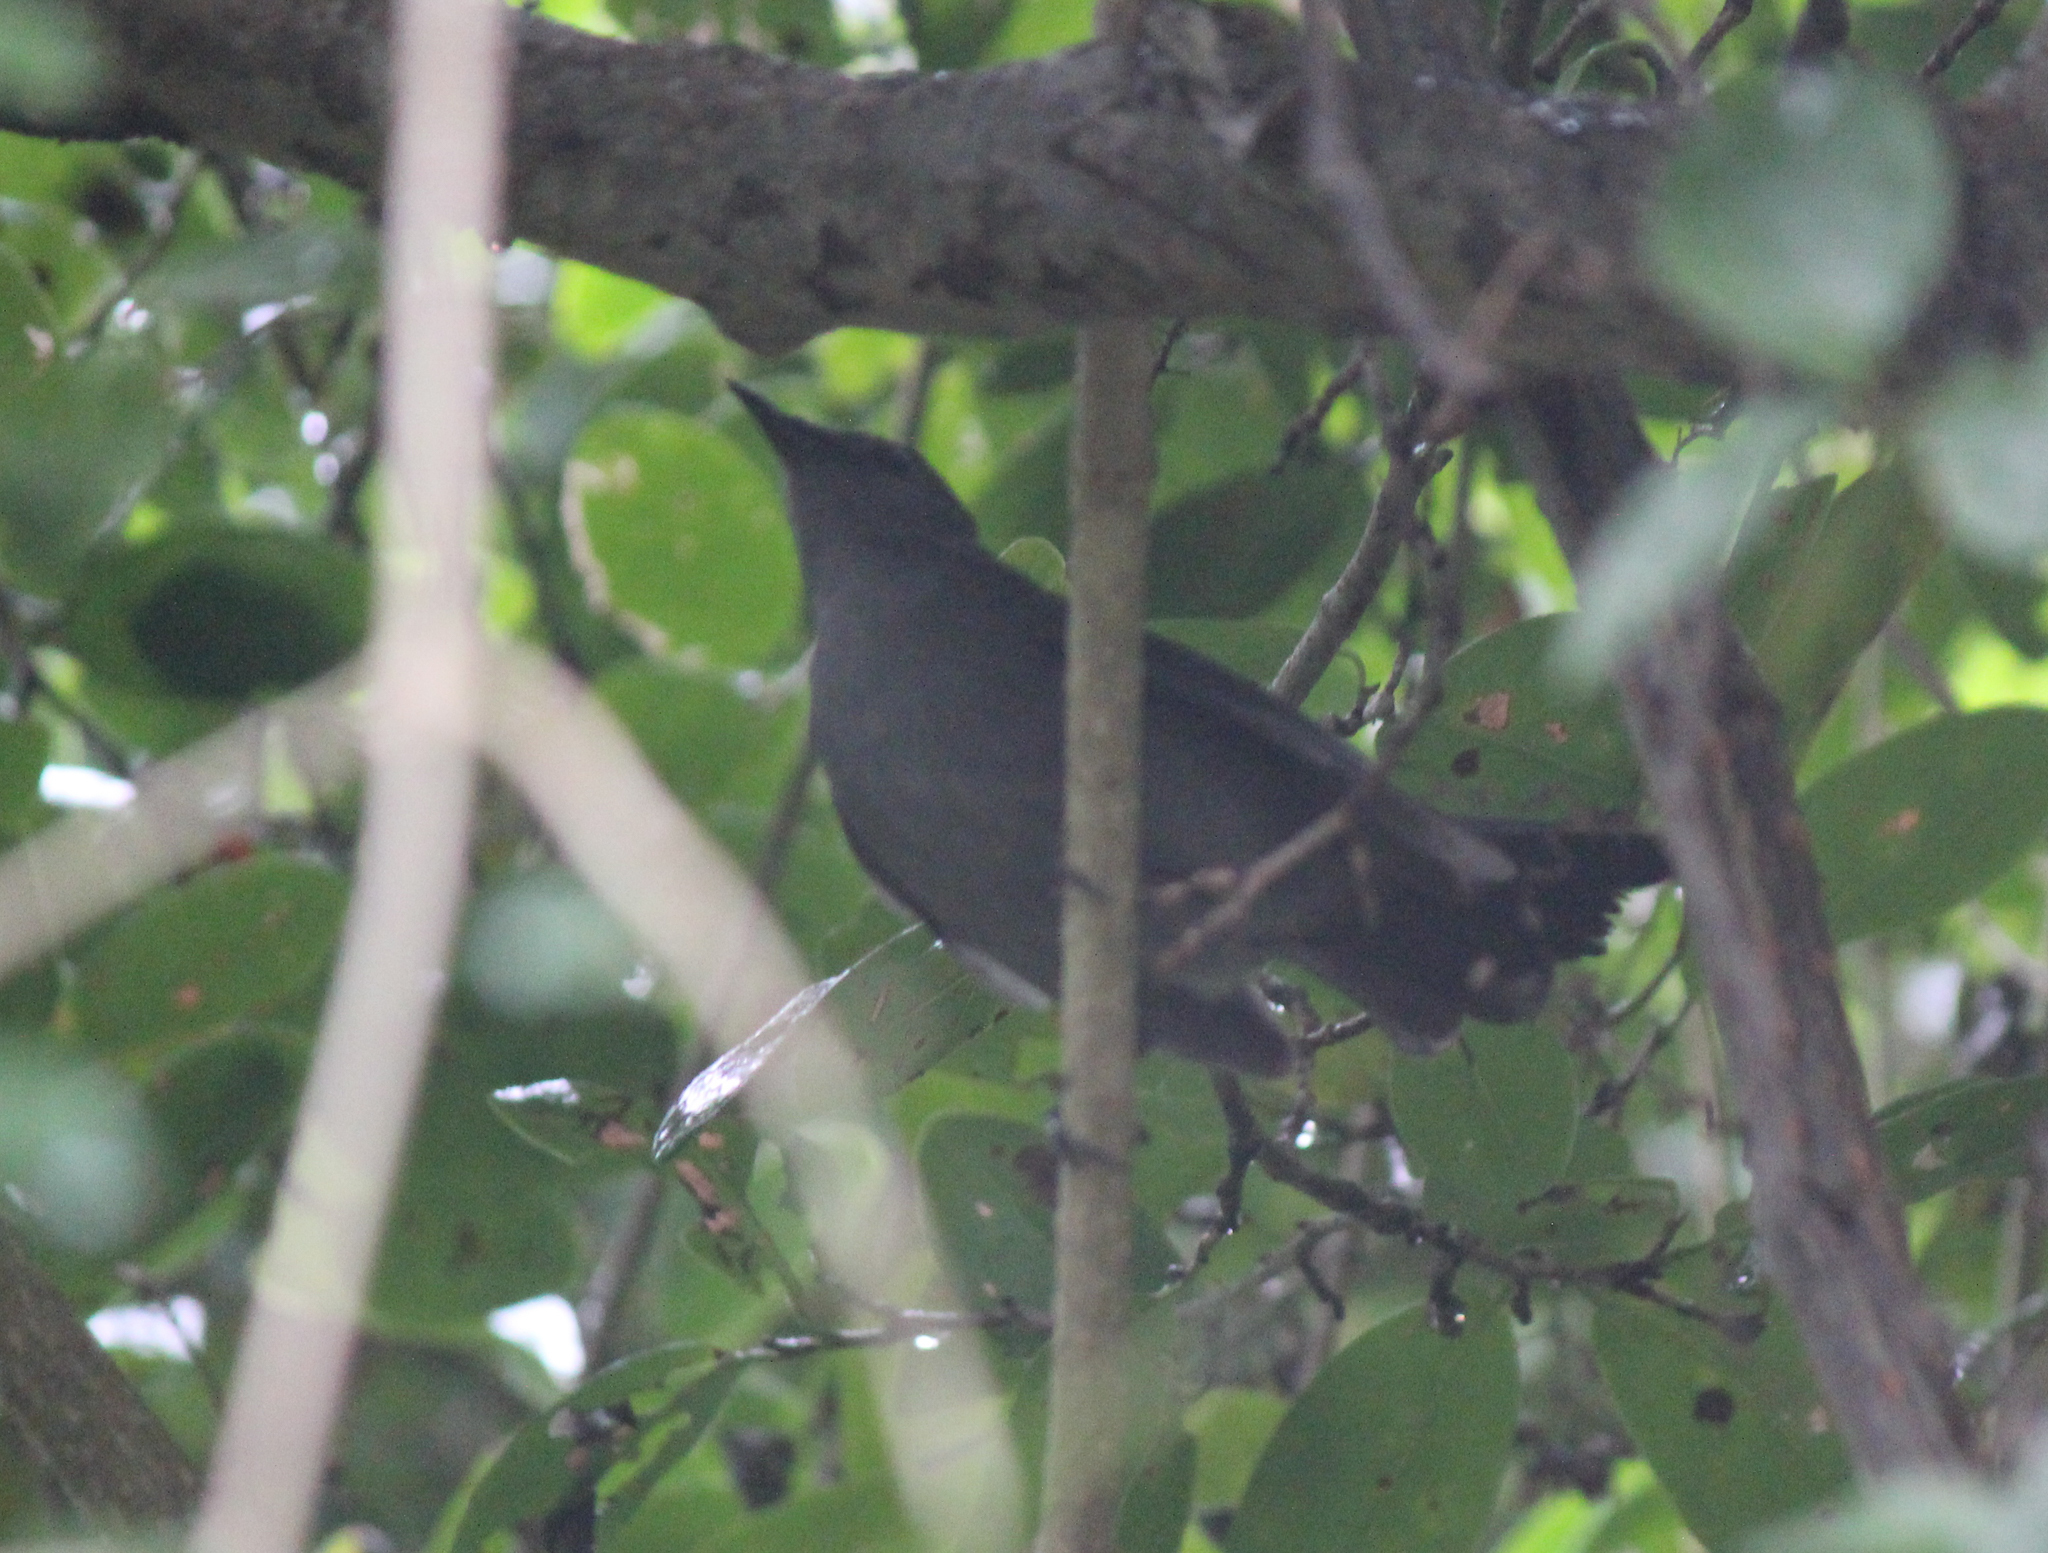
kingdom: Animalia
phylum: Chordata
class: Aves
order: Passeriformes
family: Mimidae
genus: Dumetella
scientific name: Dumetella carolinensis
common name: Gray catbird
